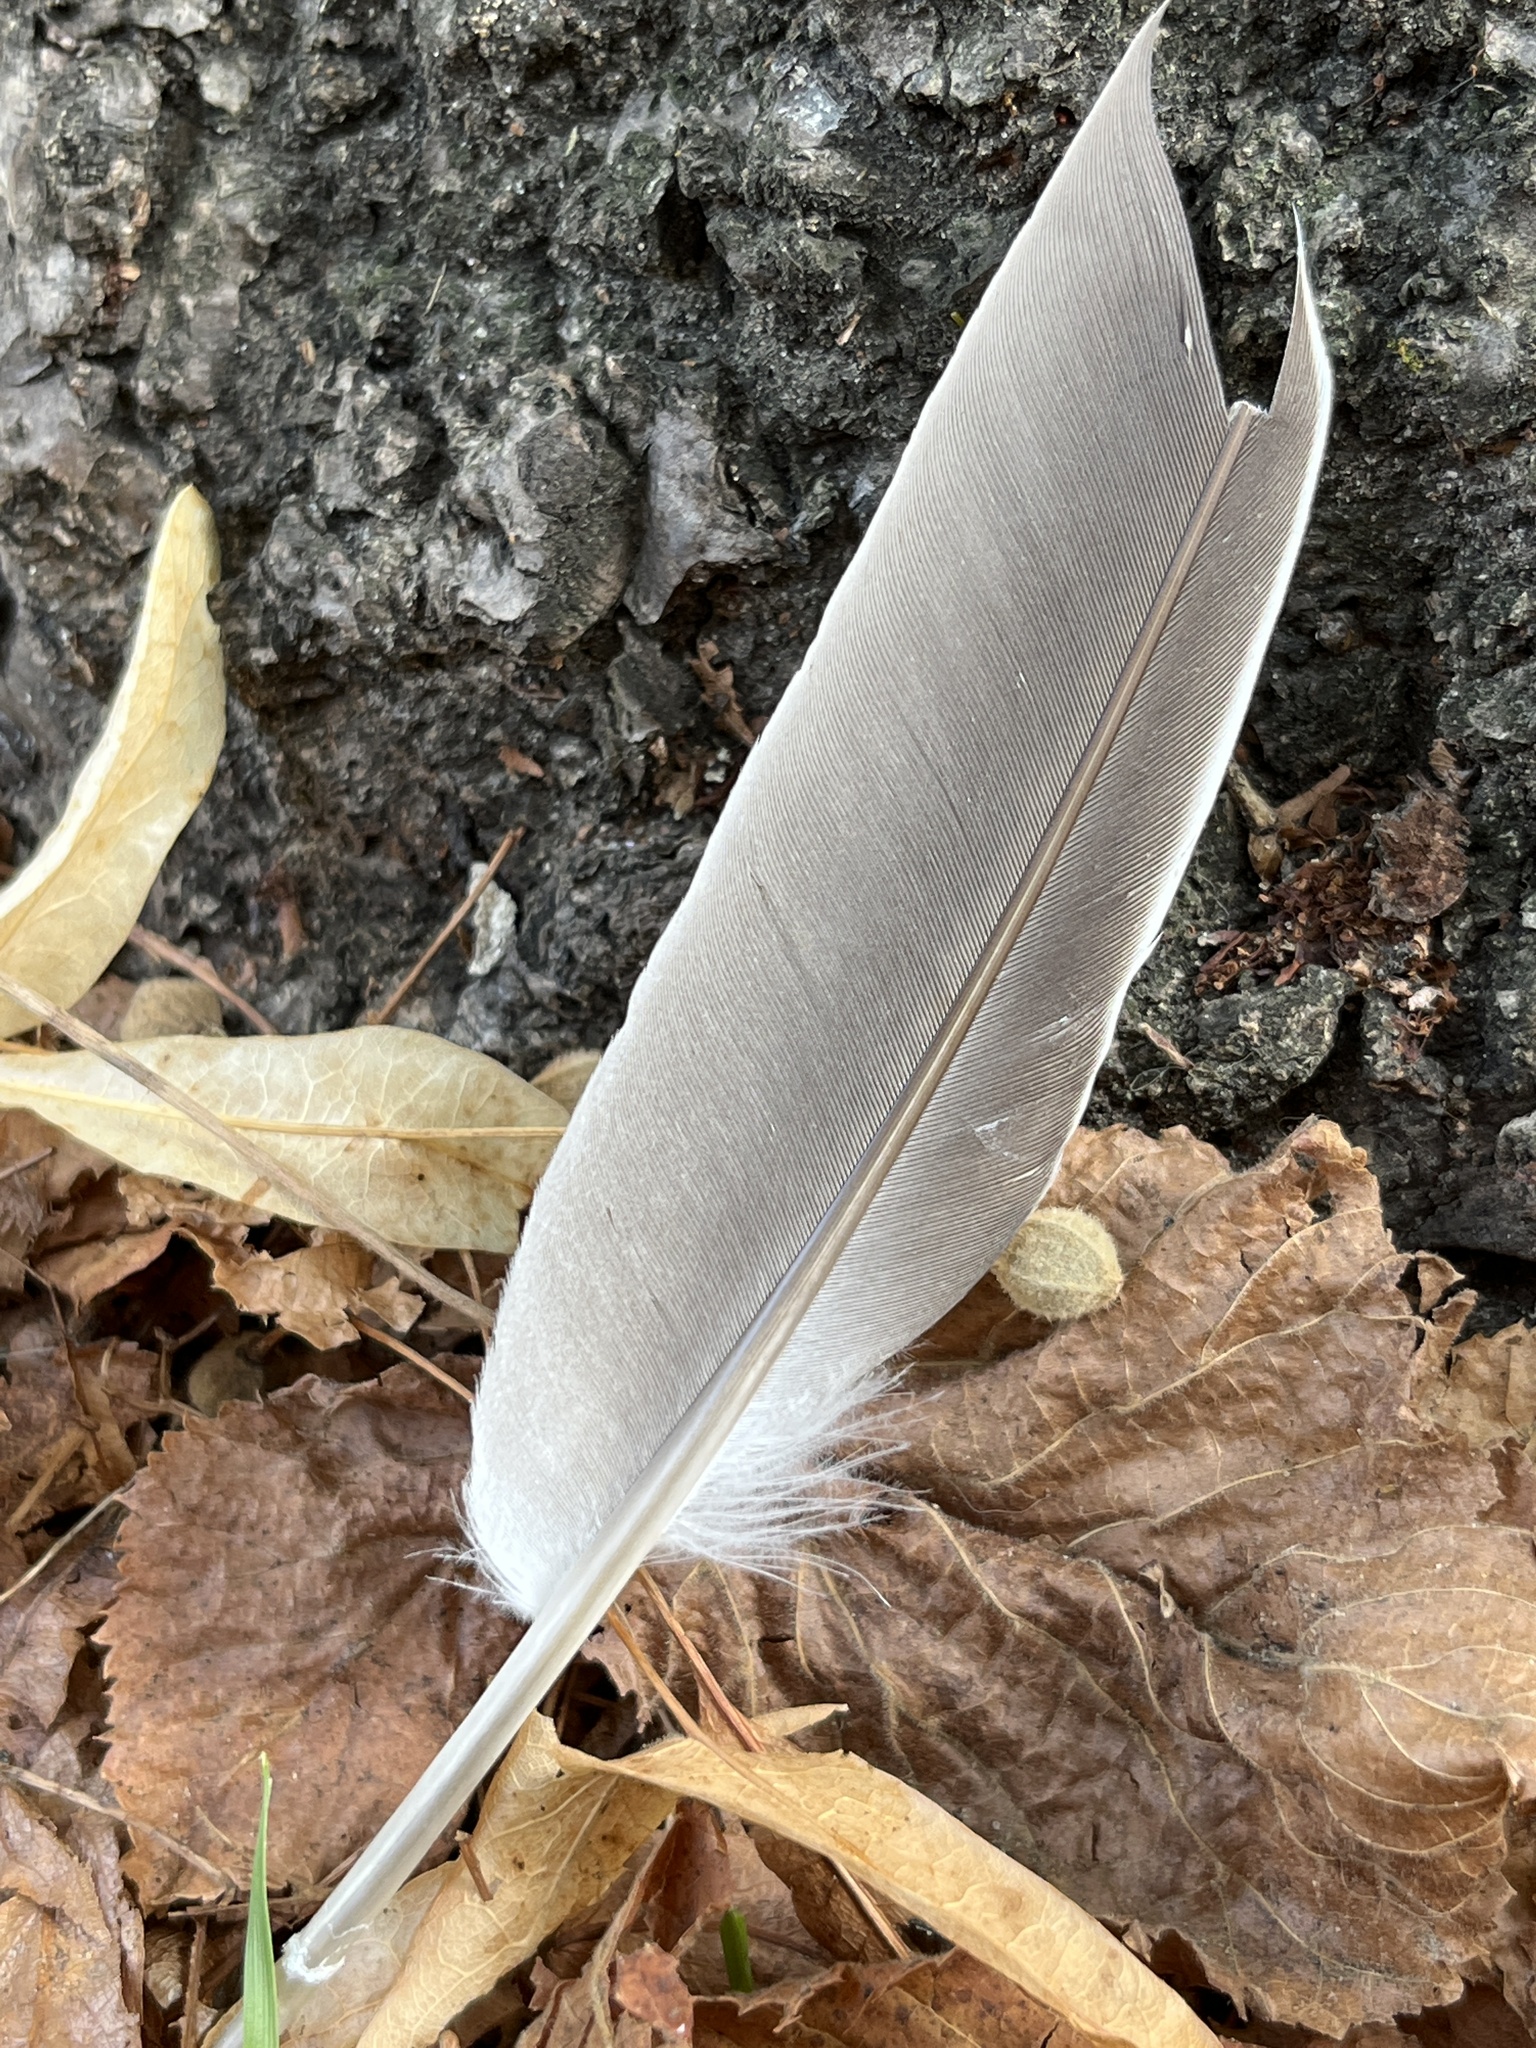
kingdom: Animalia
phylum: Chordata
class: Aves
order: Columbiformes
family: Columbidae
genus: Columba
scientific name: Columba palumbus
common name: Common wood pigeon
